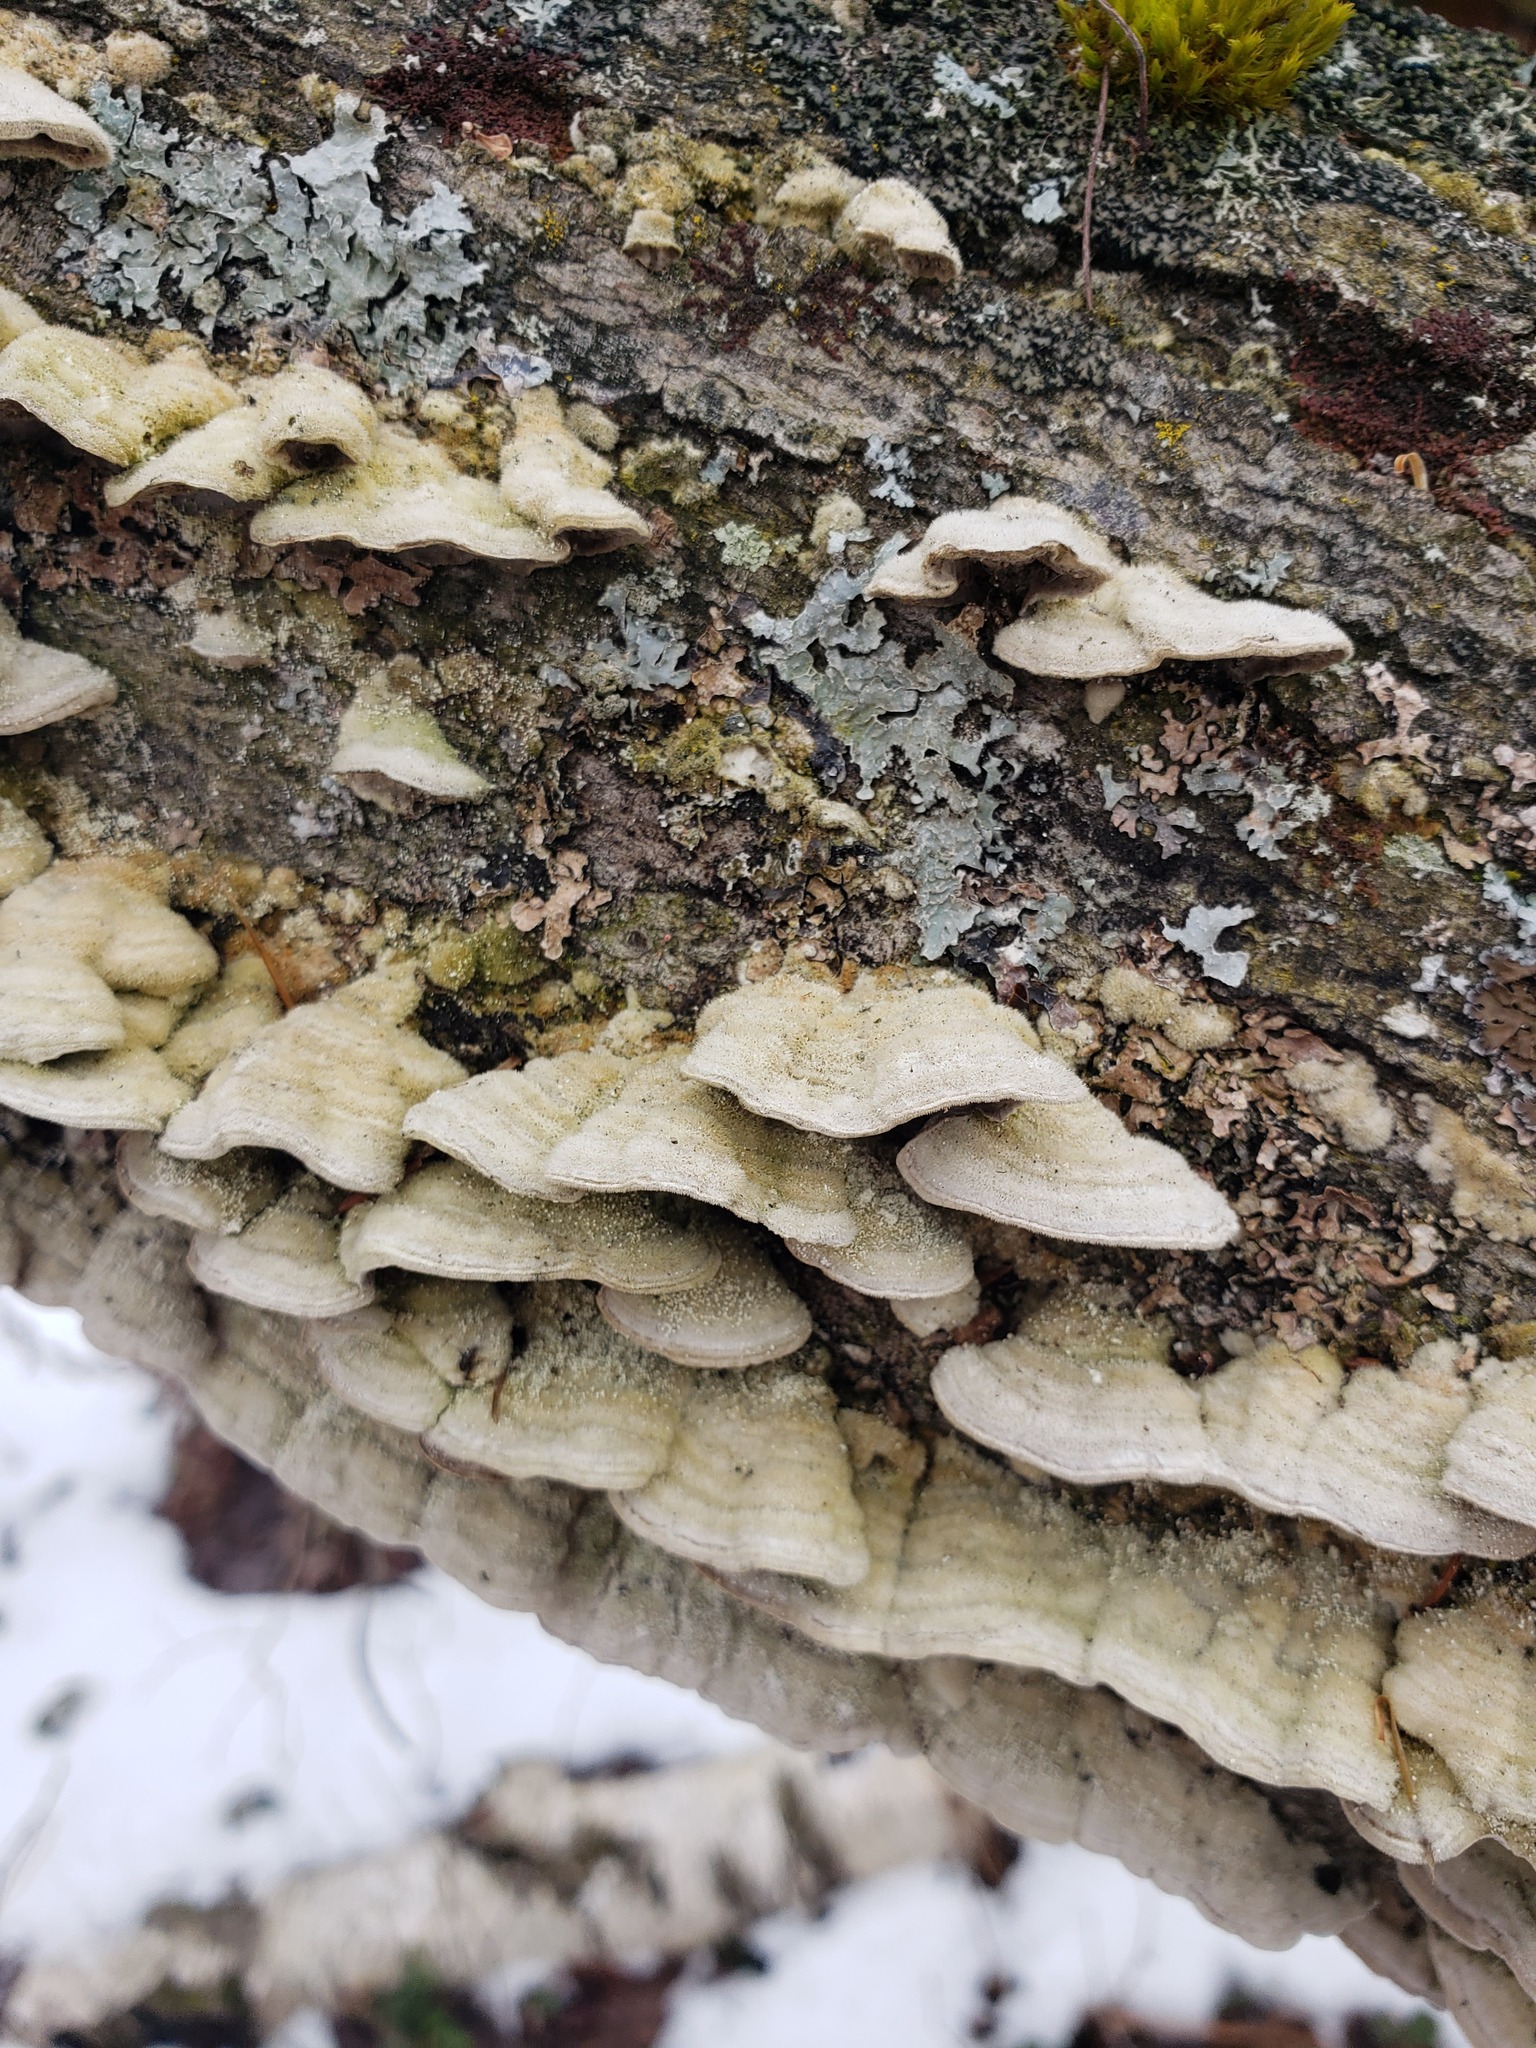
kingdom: Fungi
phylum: Basidiomycota
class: Agaricomycetes
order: Polyporales
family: Cerrenaceae
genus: Cerrena
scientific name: Cerrena unicolor
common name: Mossy maze polypore
